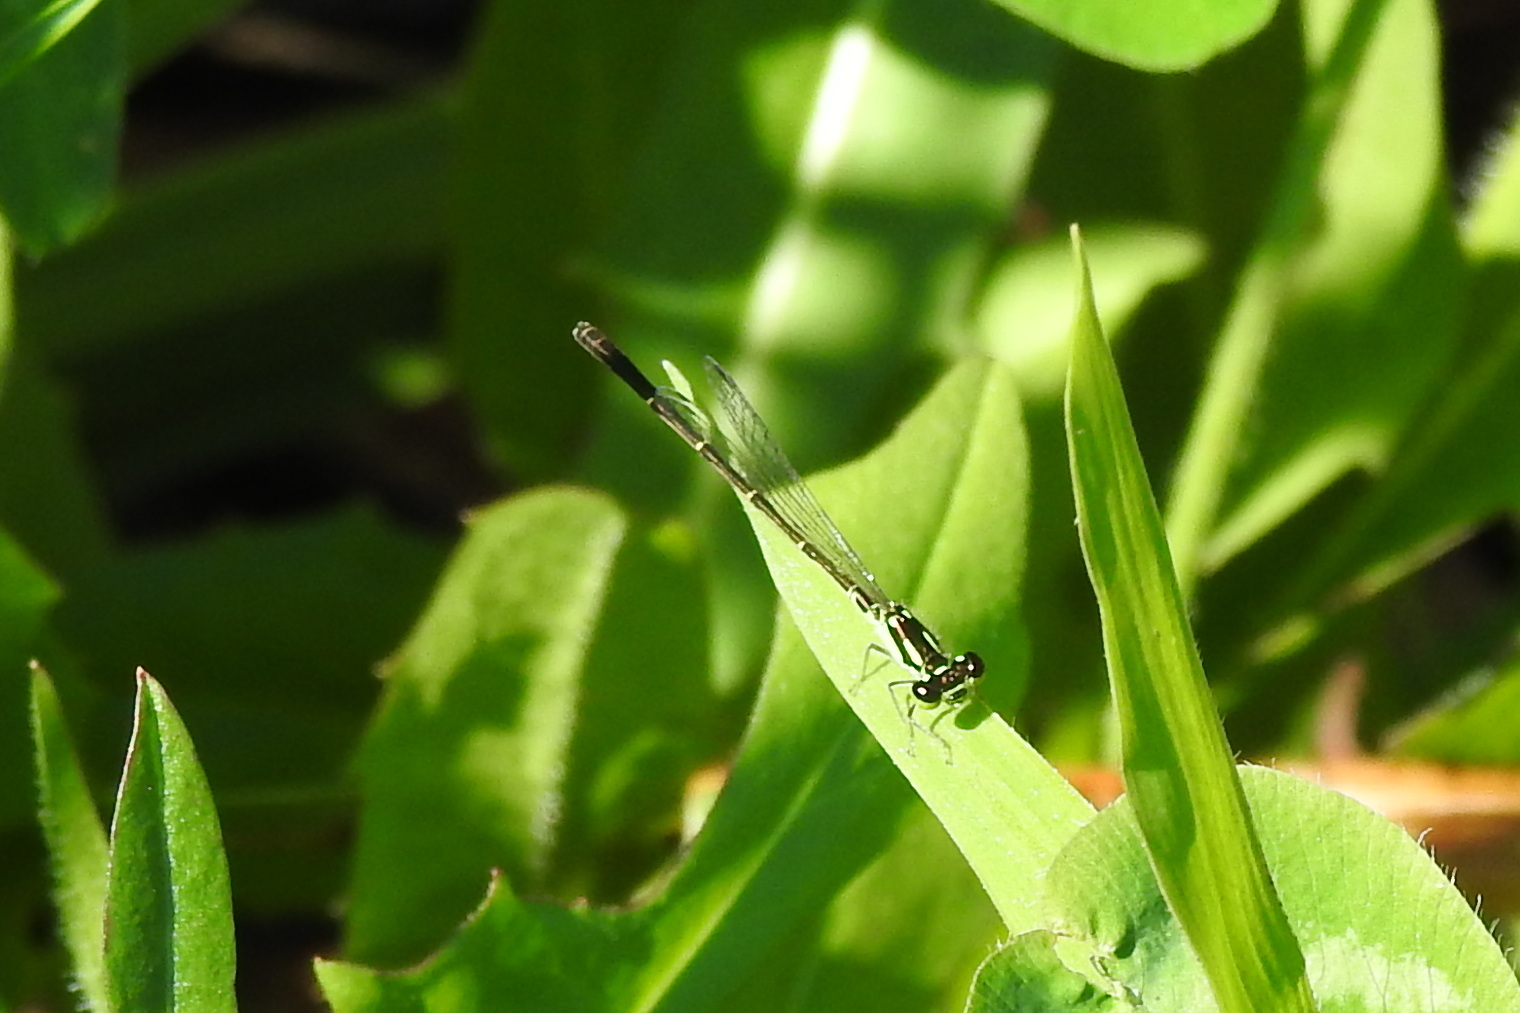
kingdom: Animalia
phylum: Arthropoda
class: Insecta
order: Odonata
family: Coenagrionidae
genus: Ischnura
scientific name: Ischnura posita
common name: Fragile forktail
